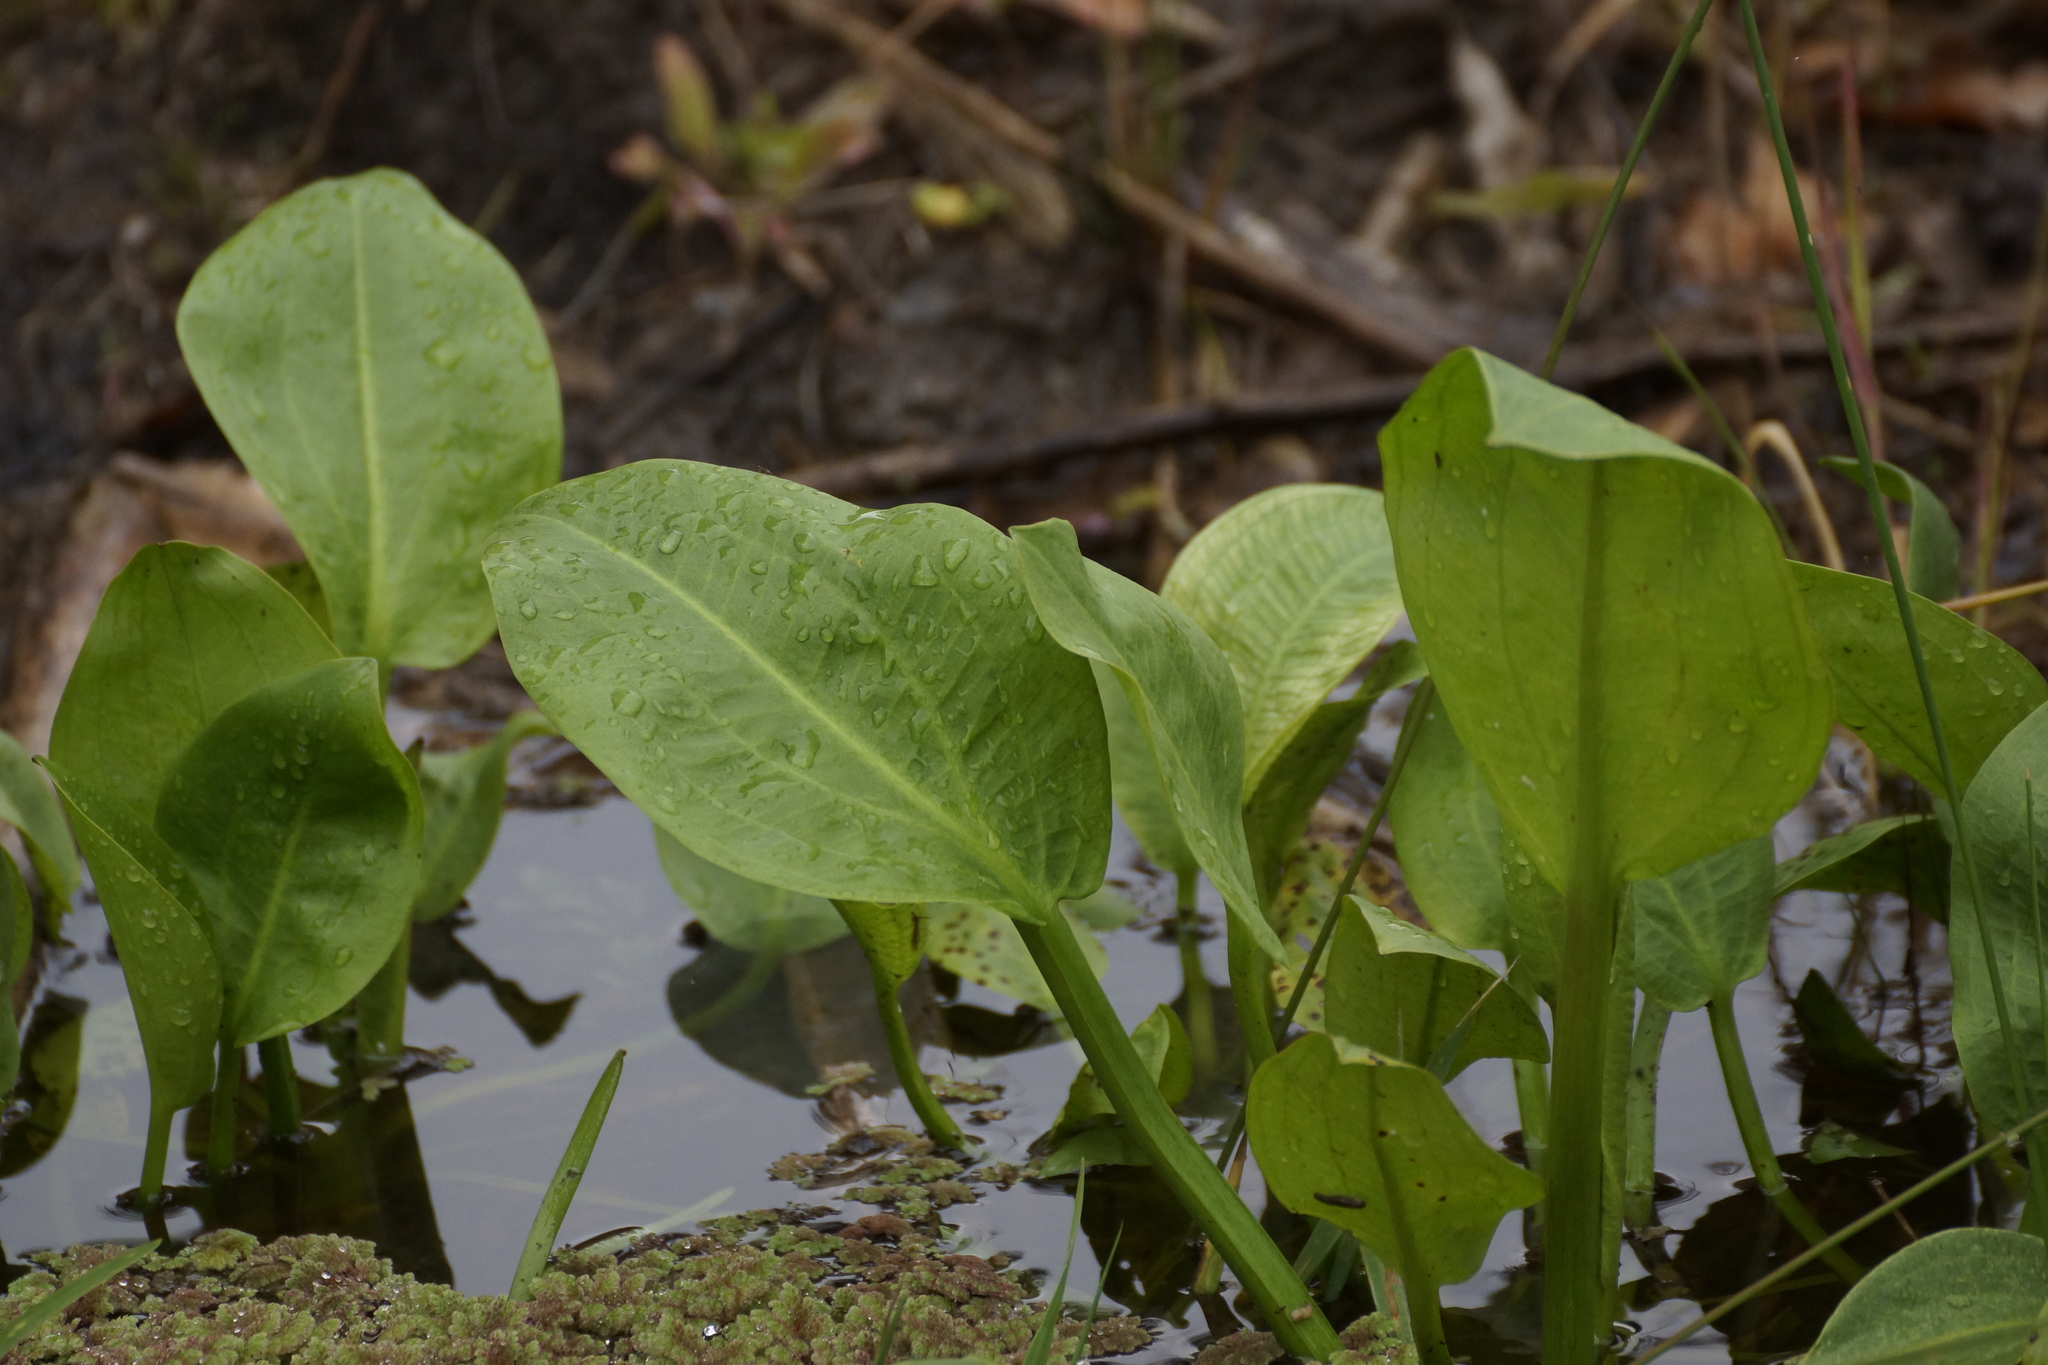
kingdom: Plantae
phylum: Tracheophyta
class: Liliopsida
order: Alismatales
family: Alismataceae
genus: Alisma
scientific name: Alisma plantago-aquatica
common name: Water-plantain
